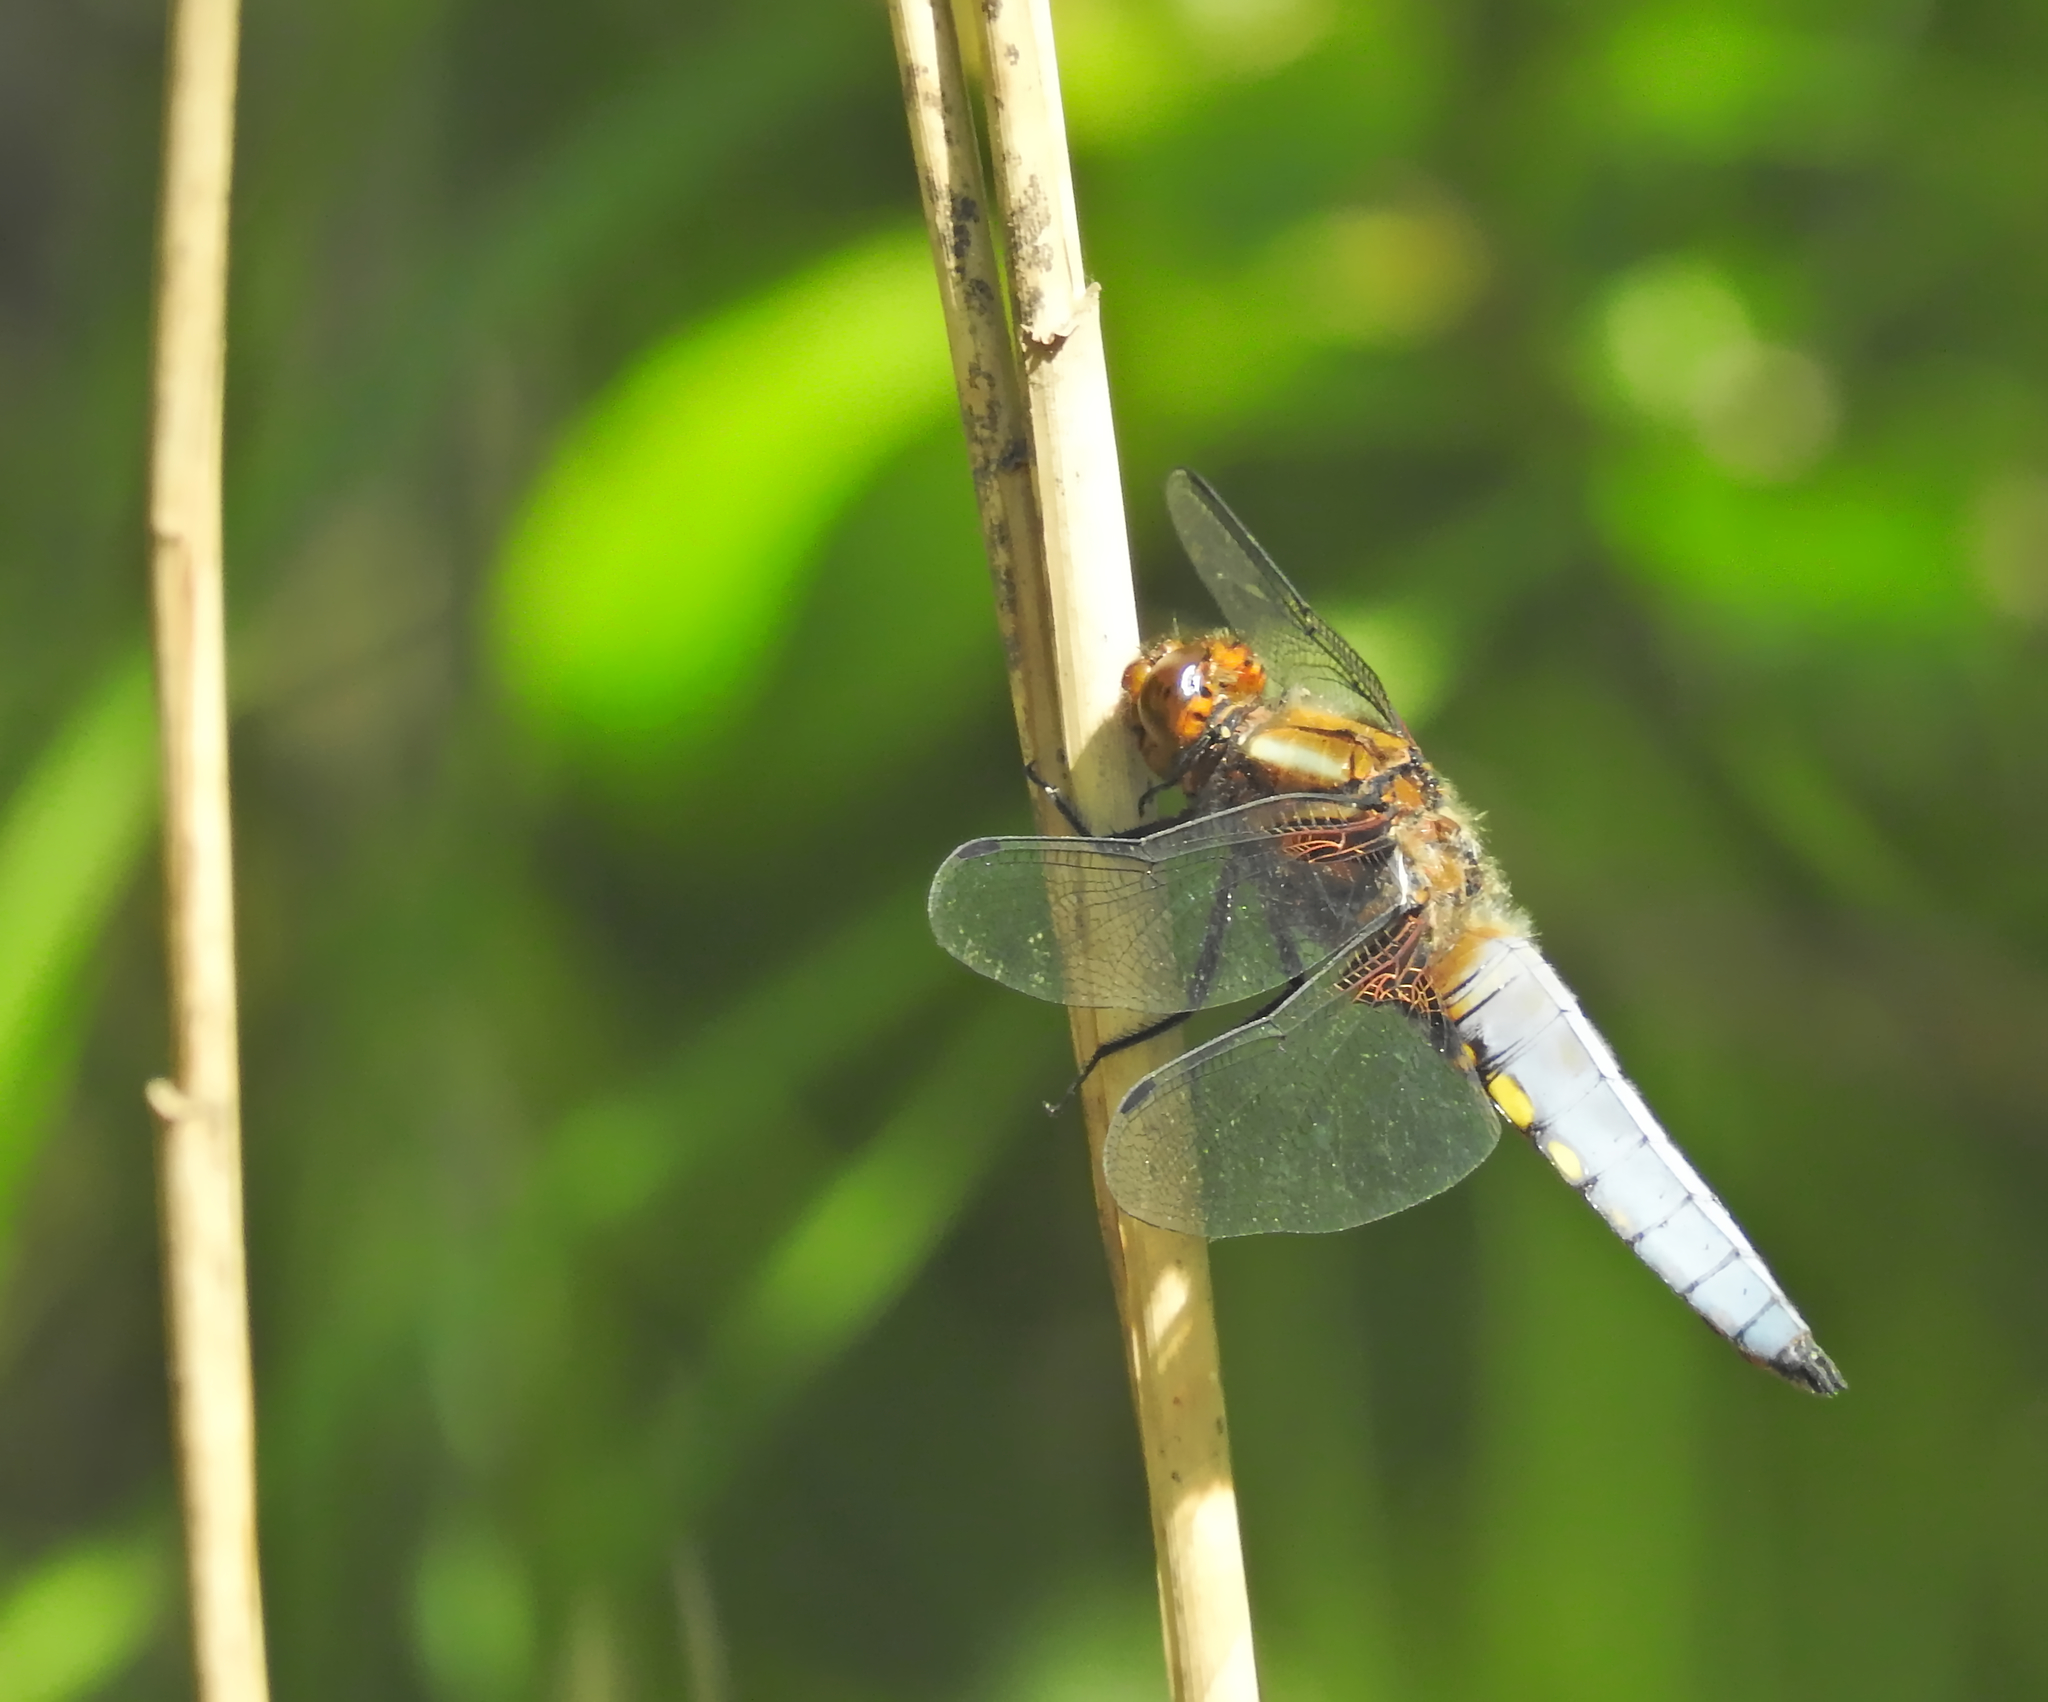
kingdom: Animalia
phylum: Arthropoda
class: Insecta
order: Odonata
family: Libellulidae
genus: Libellula
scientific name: Libellula depressa
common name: Broad-bodied chaser
